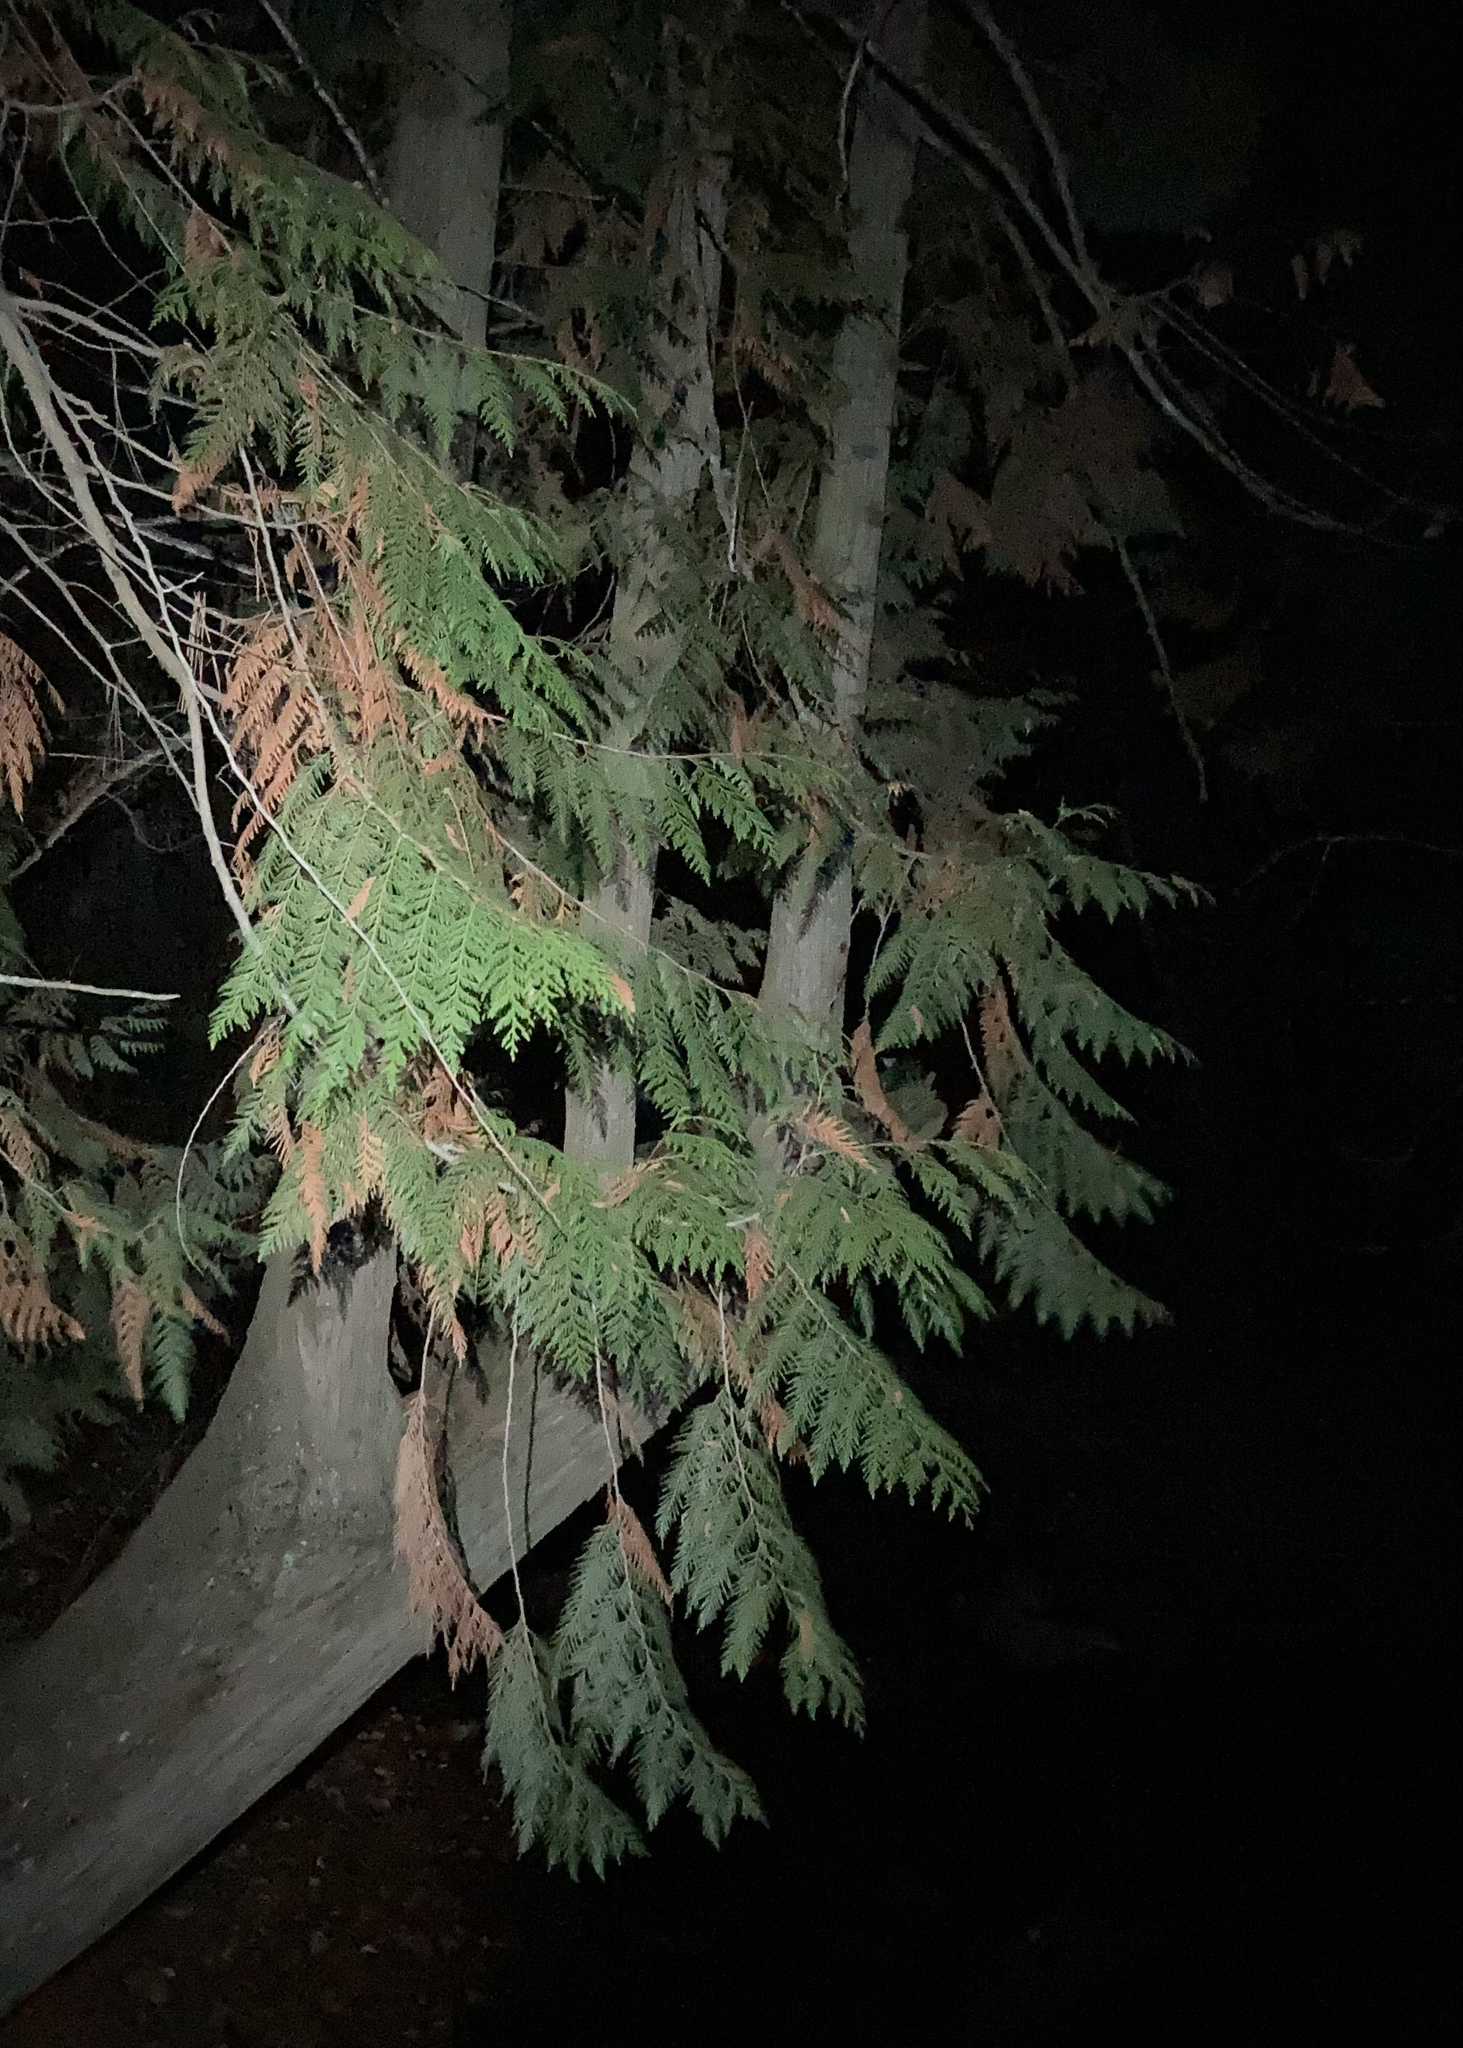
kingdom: Plantae
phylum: Tracheophyta
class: Pinopsida
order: Pinales
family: Cupressaceae
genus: Thuja
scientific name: Thuja plicata
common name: Western red-cedar
